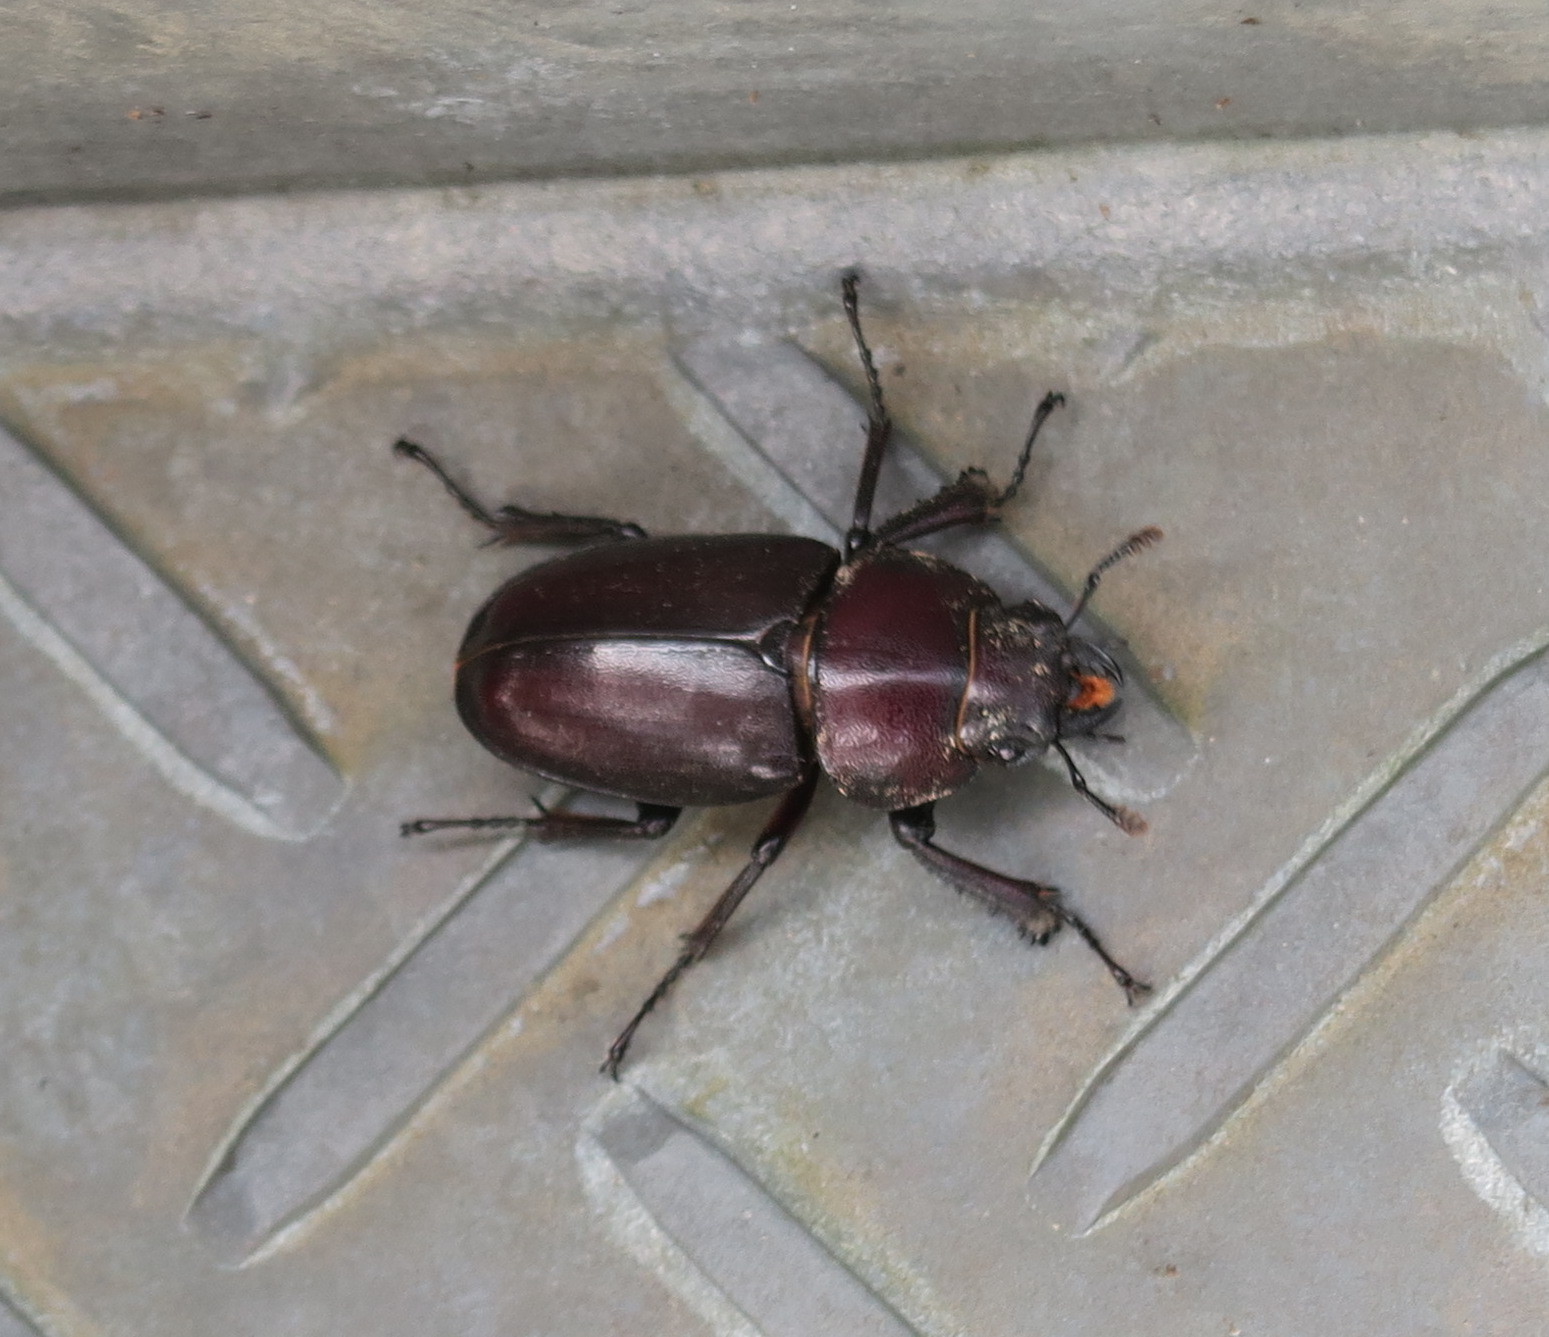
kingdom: Animalia
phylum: Arthropoda
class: Insecta
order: Coleoptera
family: Lucanidae
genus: Prosopocoilus
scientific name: Prosopocoilus inclinatus
